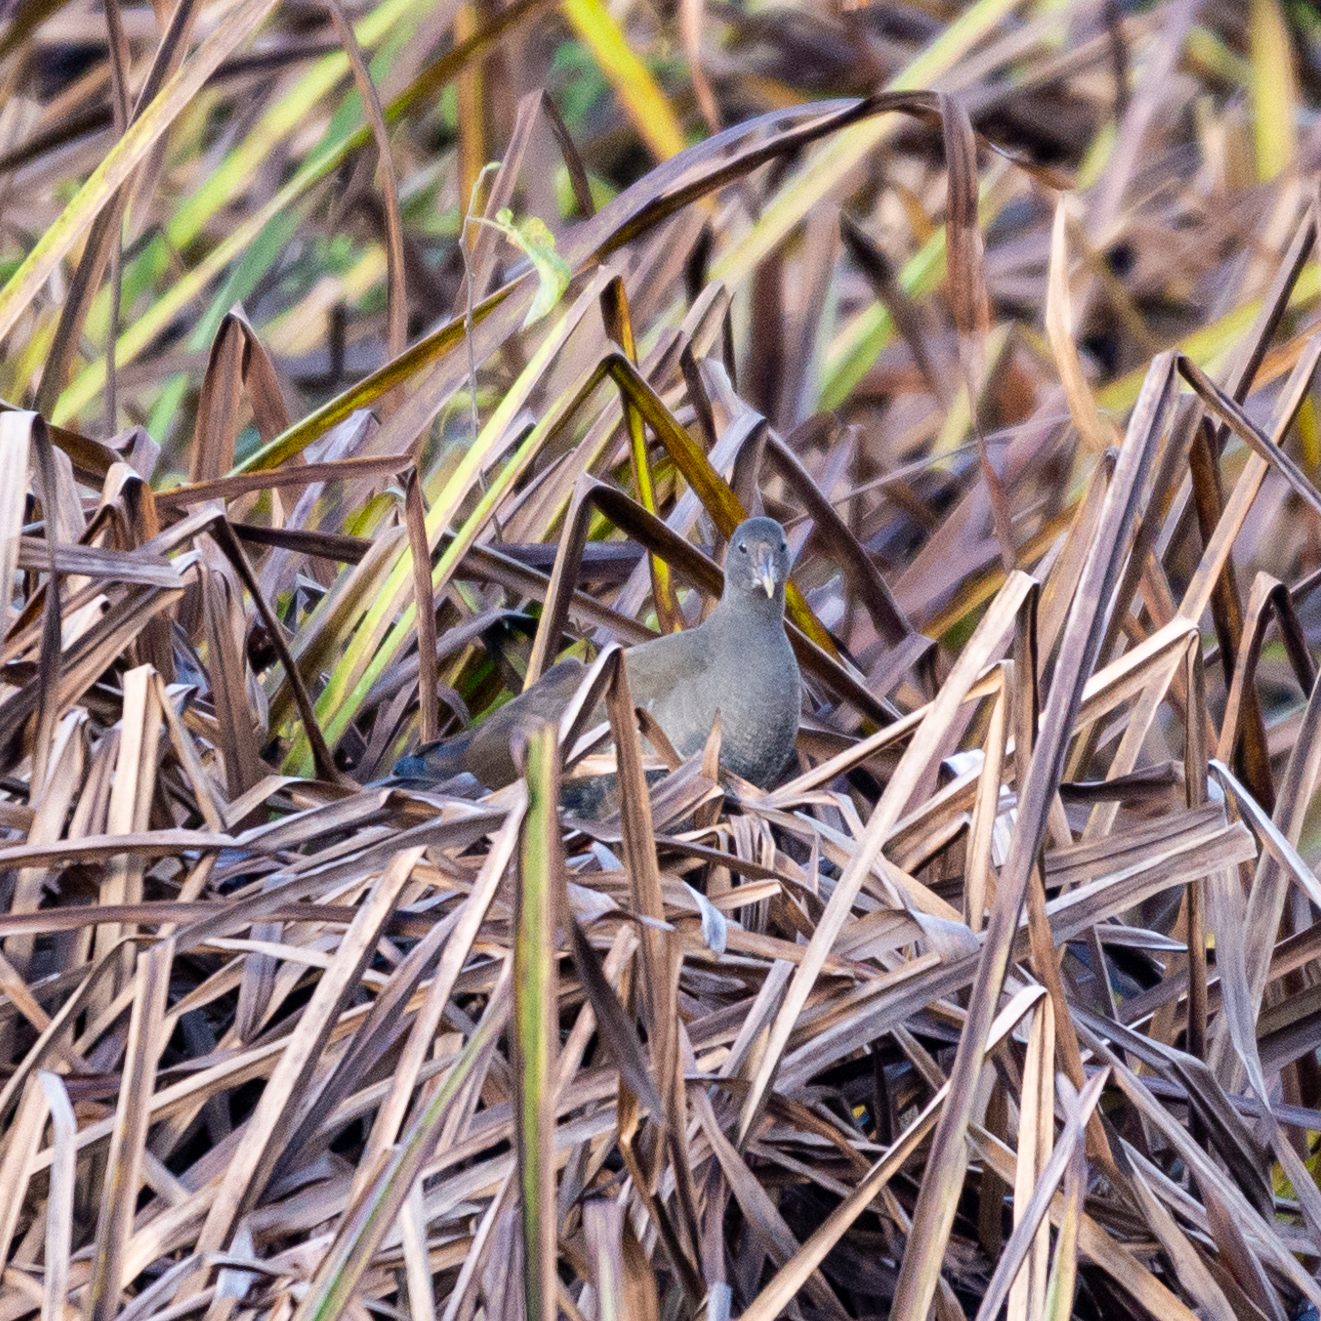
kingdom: Animalia
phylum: Chordata
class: Aves
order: Gruiformes
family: Rallidae
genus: Gallinula
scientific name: Gallinula chloropus
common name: Common moorhen
